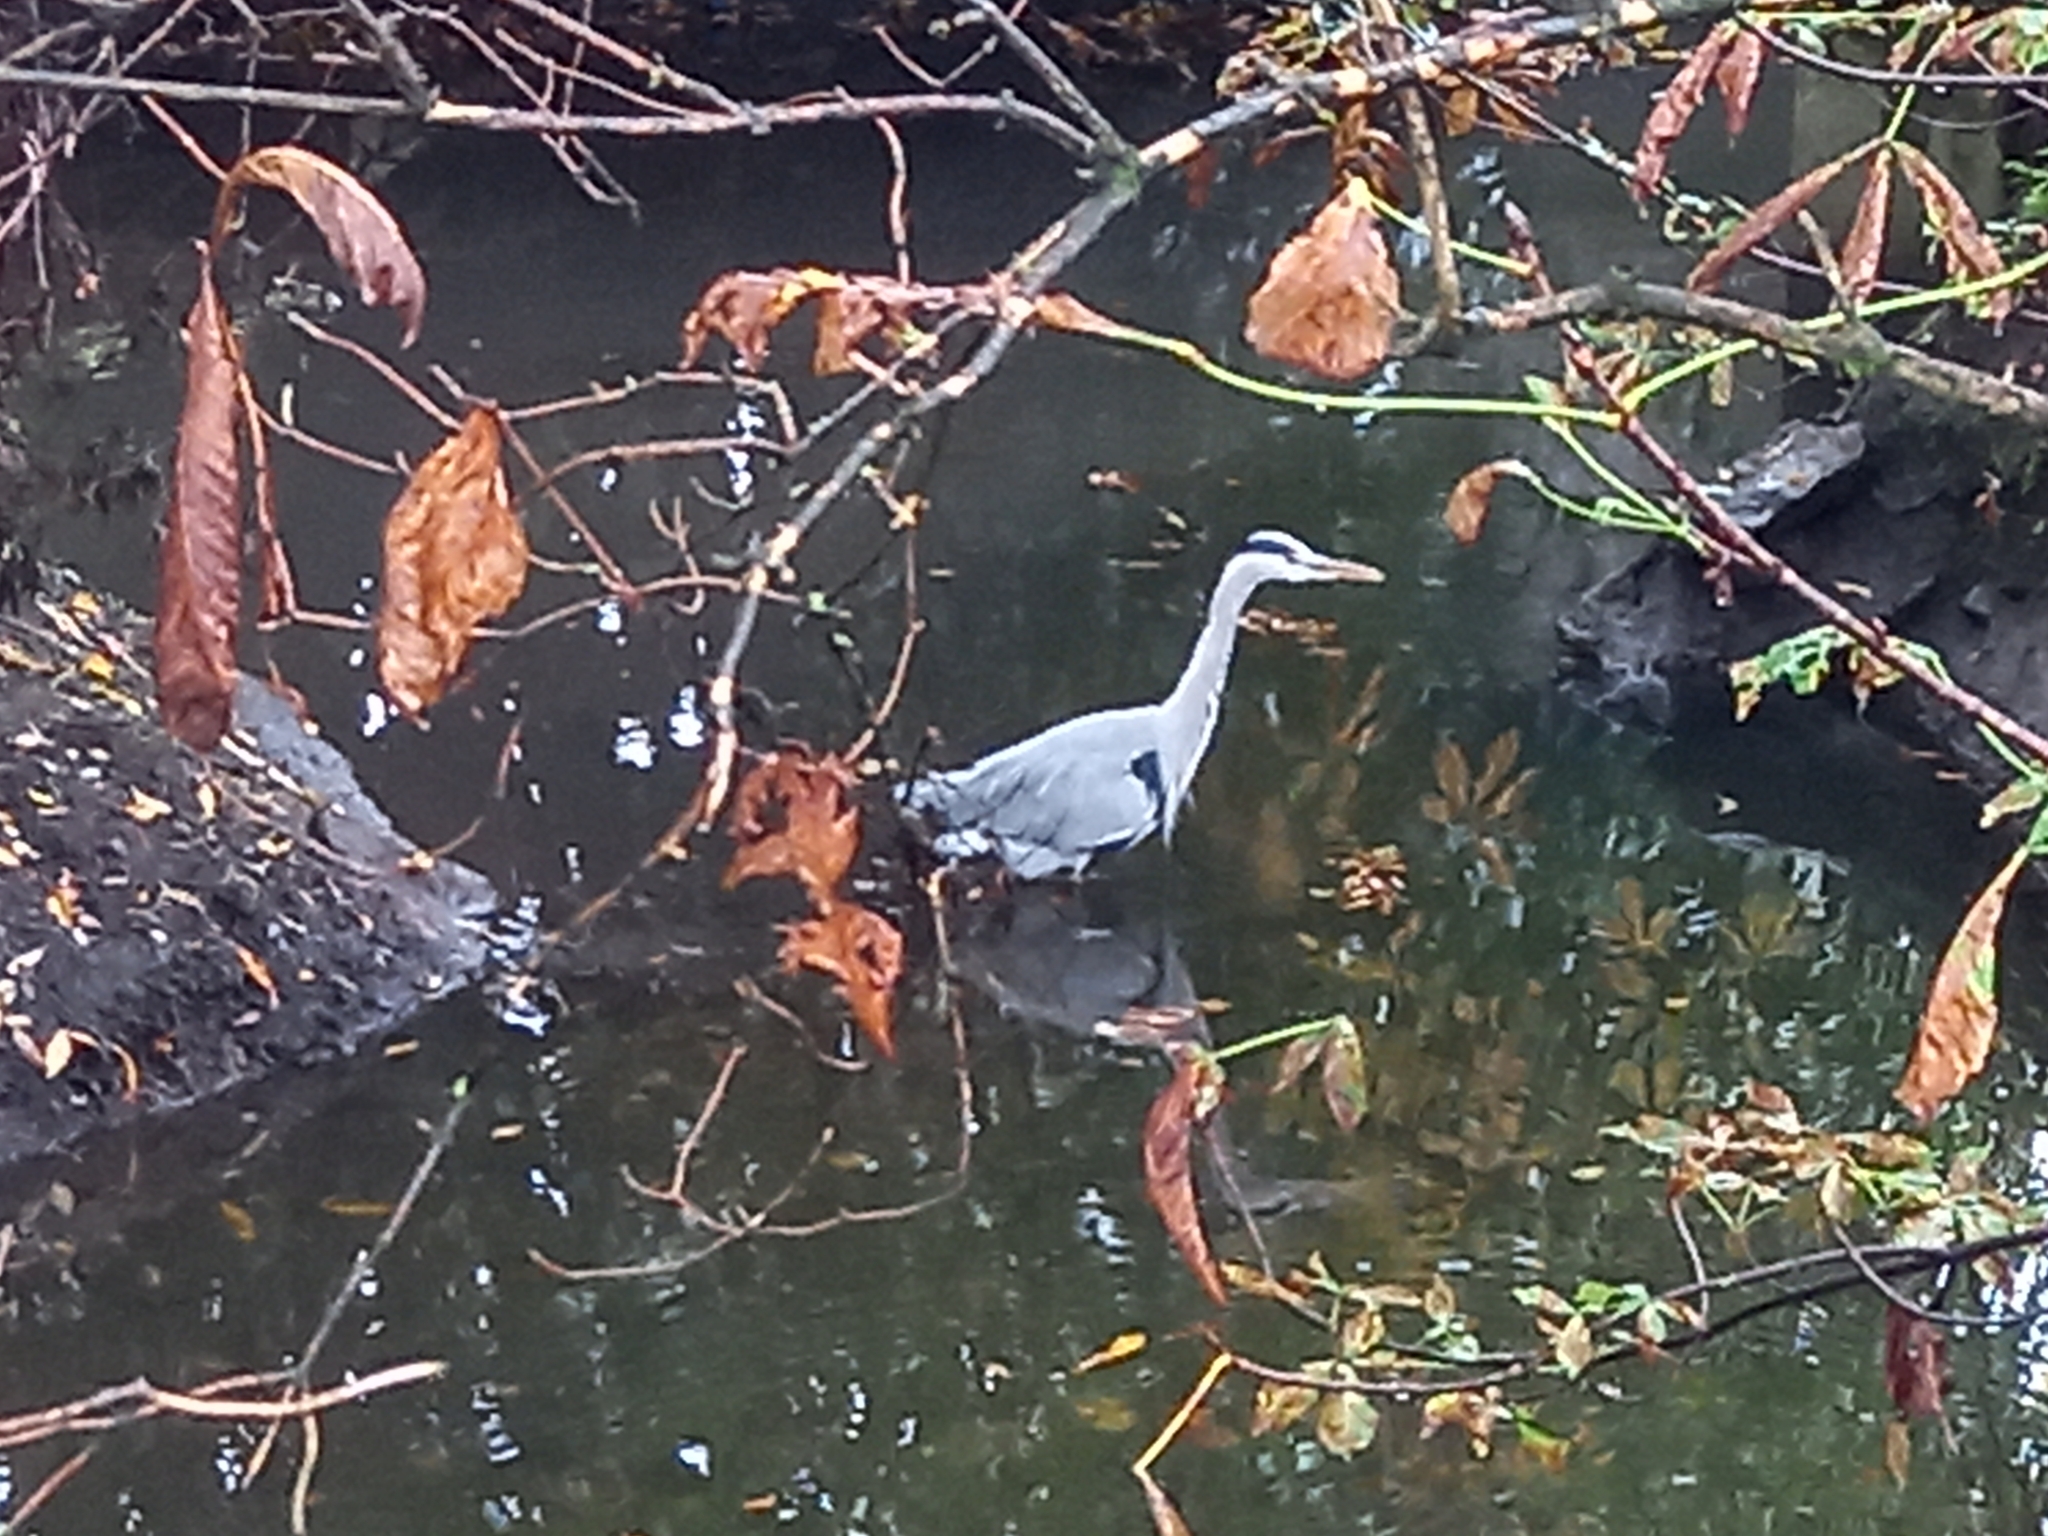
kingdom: Animalia
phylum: Chordata
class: Aves
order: Pelecaniformes
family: Ardeidae
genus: Ardea
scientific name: Ardea cinerea
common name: Grey heron
